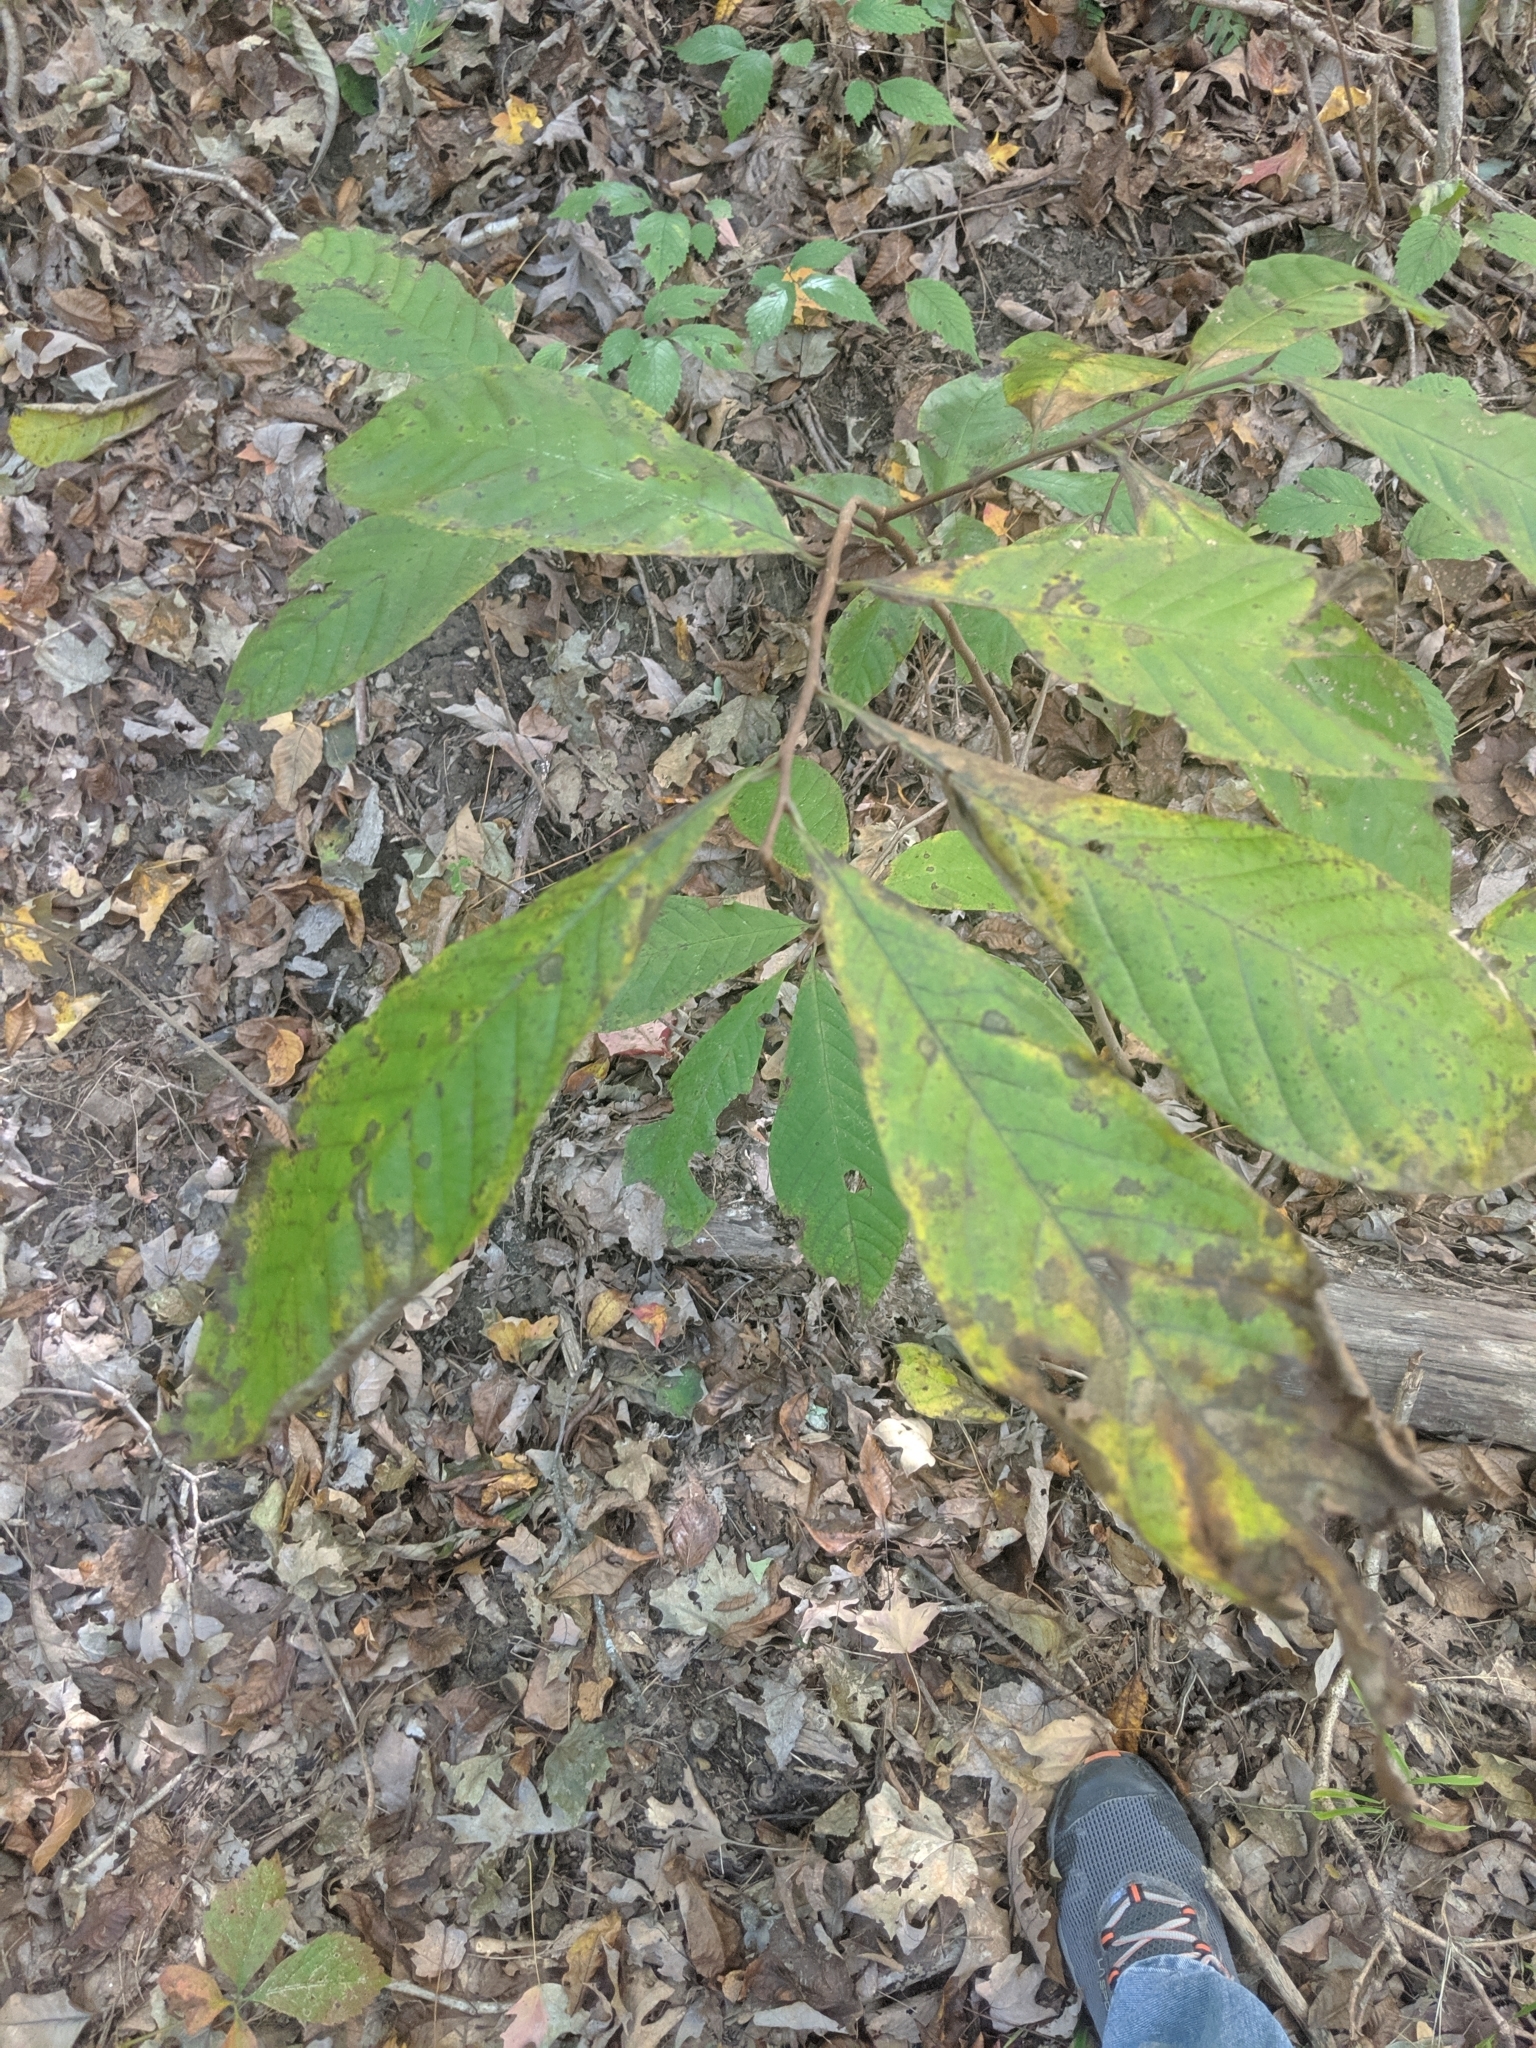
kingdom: Plantae
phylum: Tracheophyta
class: Magnoliopsida
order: Magnoliales
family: Annonaceae
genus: Asimina
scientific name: Asimina triloba
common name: Dog-banana
